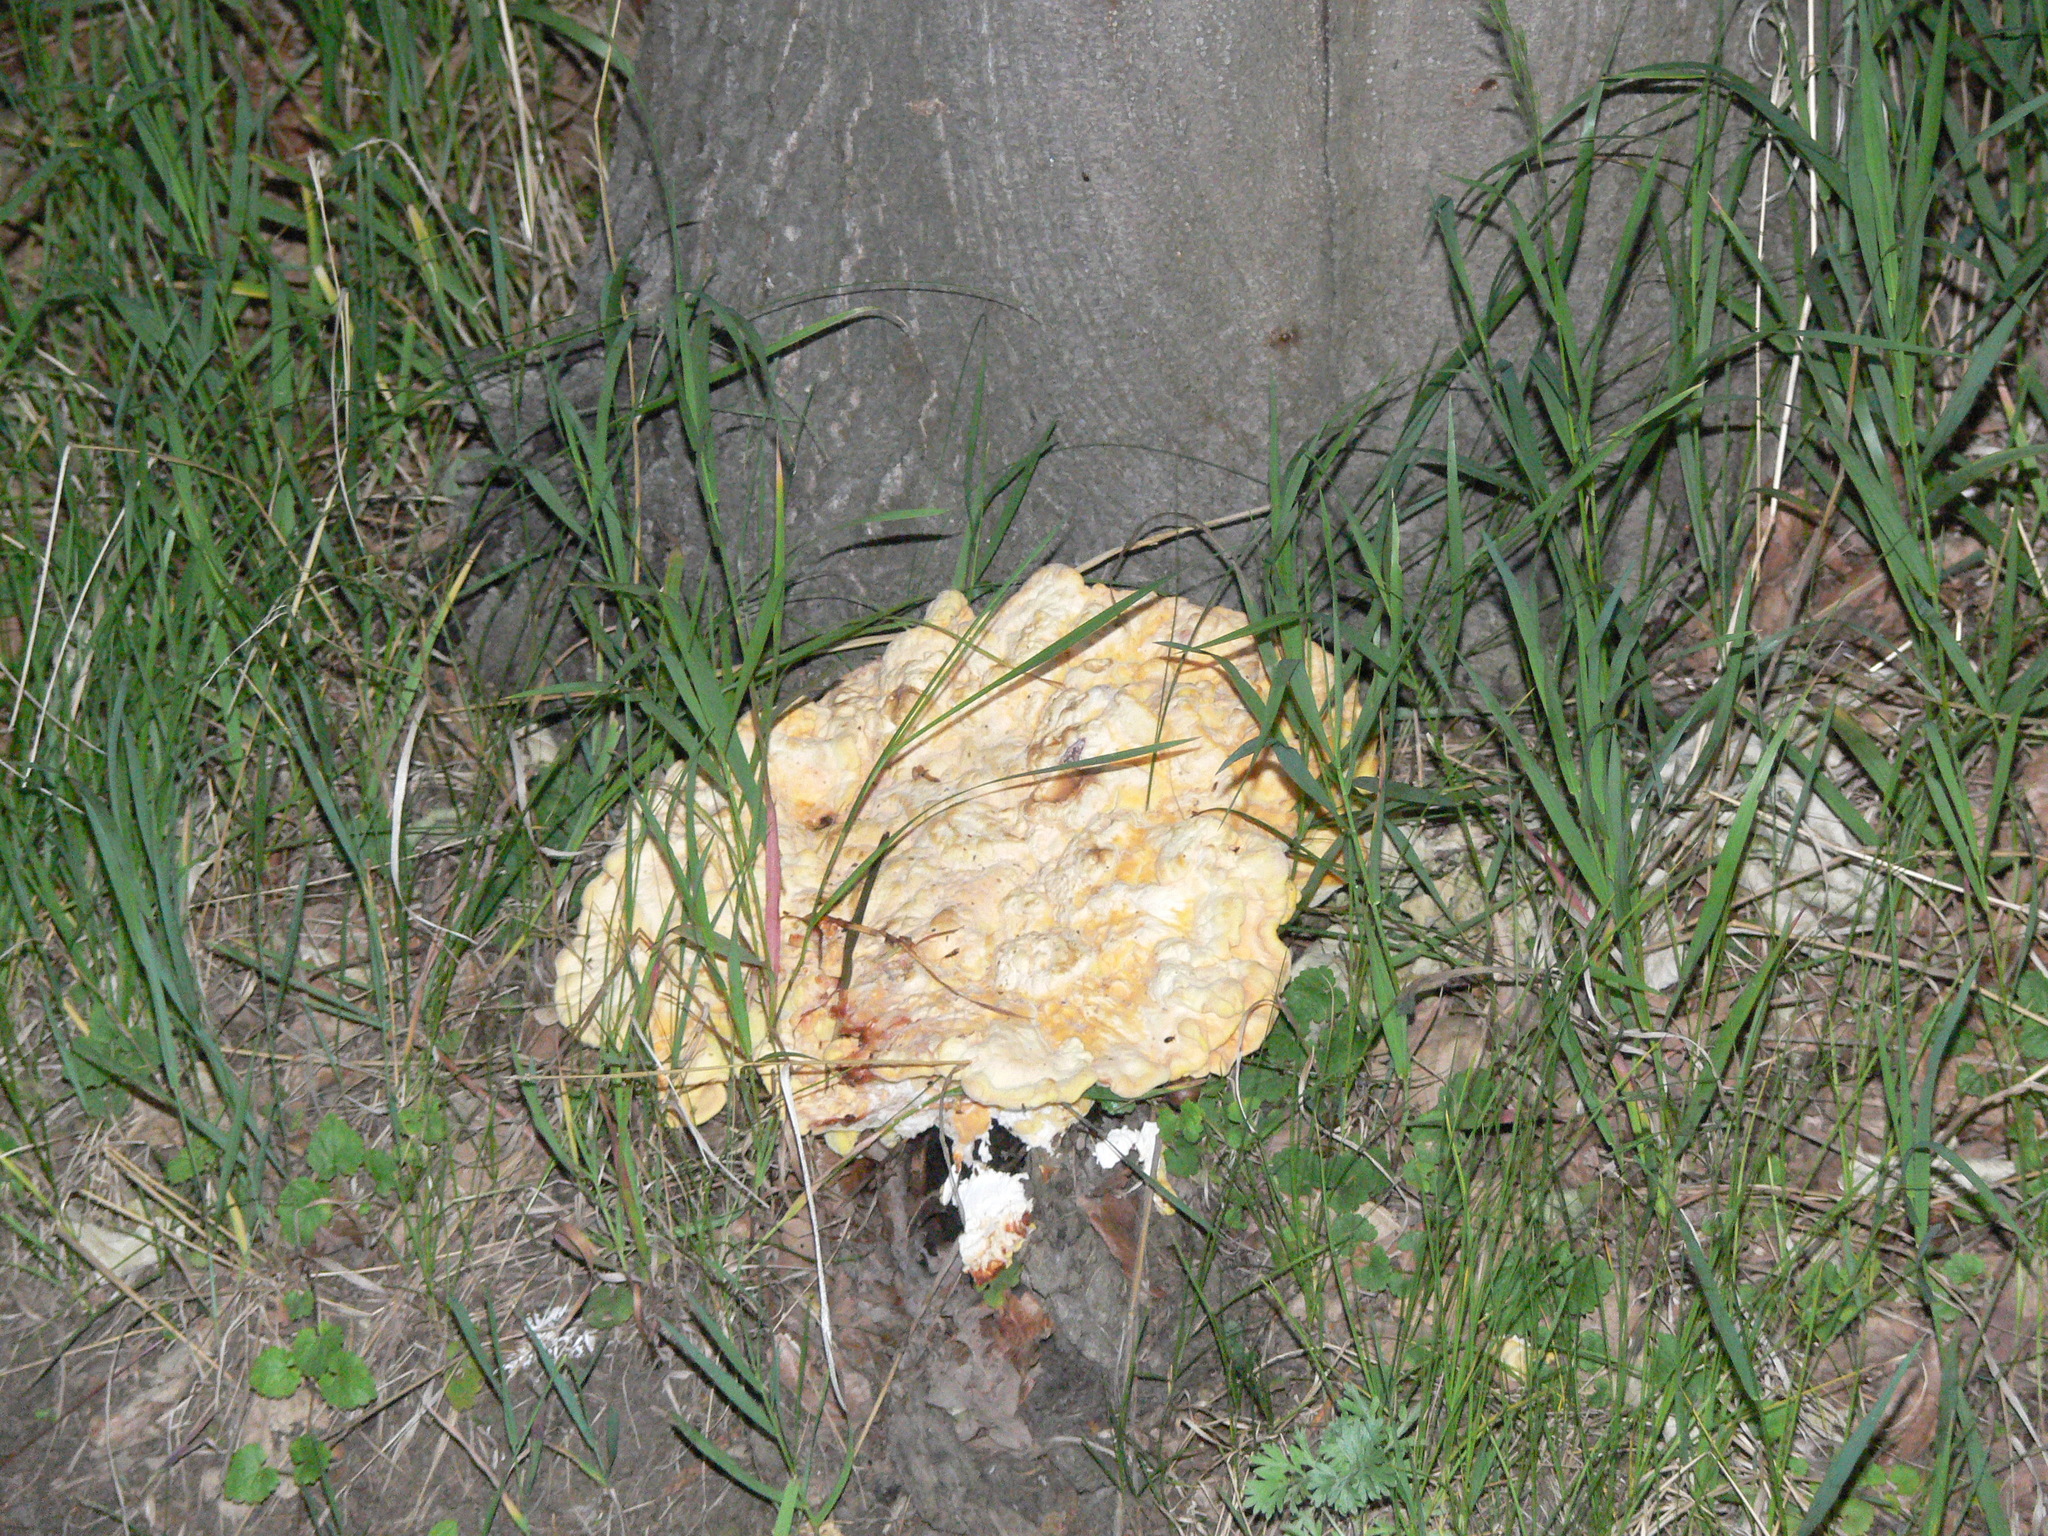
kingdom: Fungi
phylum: Basidiomycota
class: Agaricomycetes
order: Polyporales
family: Laetiporaceae
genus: Laetiporus
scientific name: Laetiporus sulphureus
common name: Chicken of the woods
